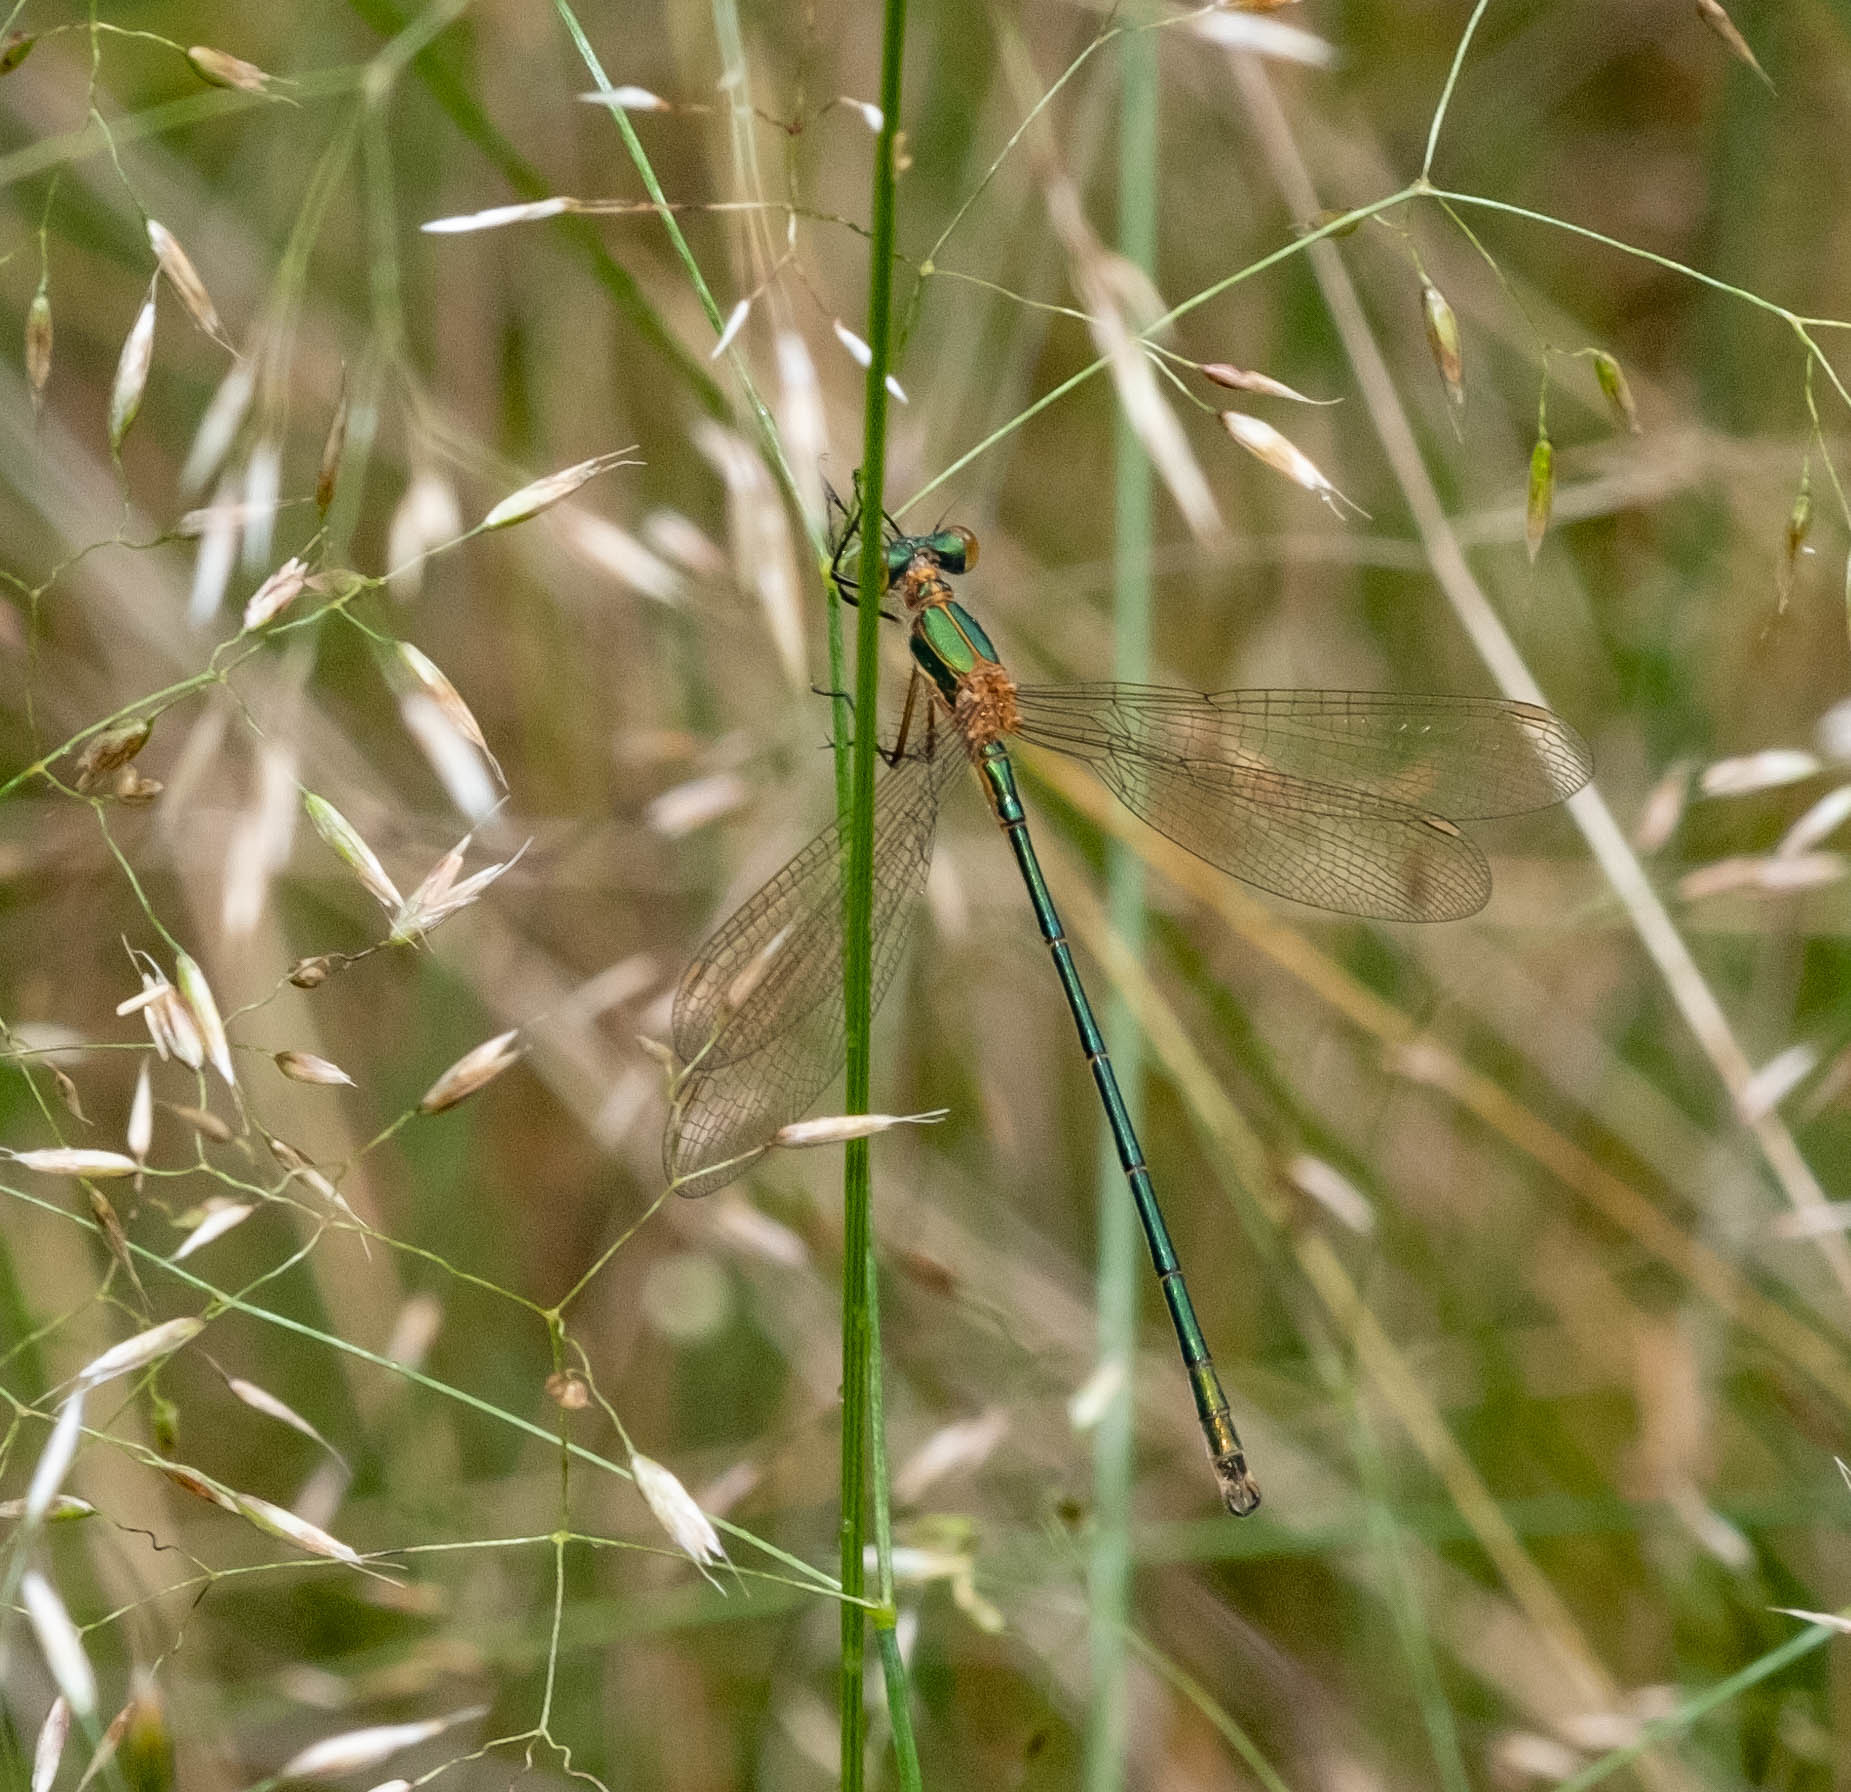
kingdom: Animalia
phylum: Arthropoda
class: Insecta
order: Odonata
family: Lestidae
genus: Lestes
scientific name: Lestes sponsa
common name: Common spreadwing
